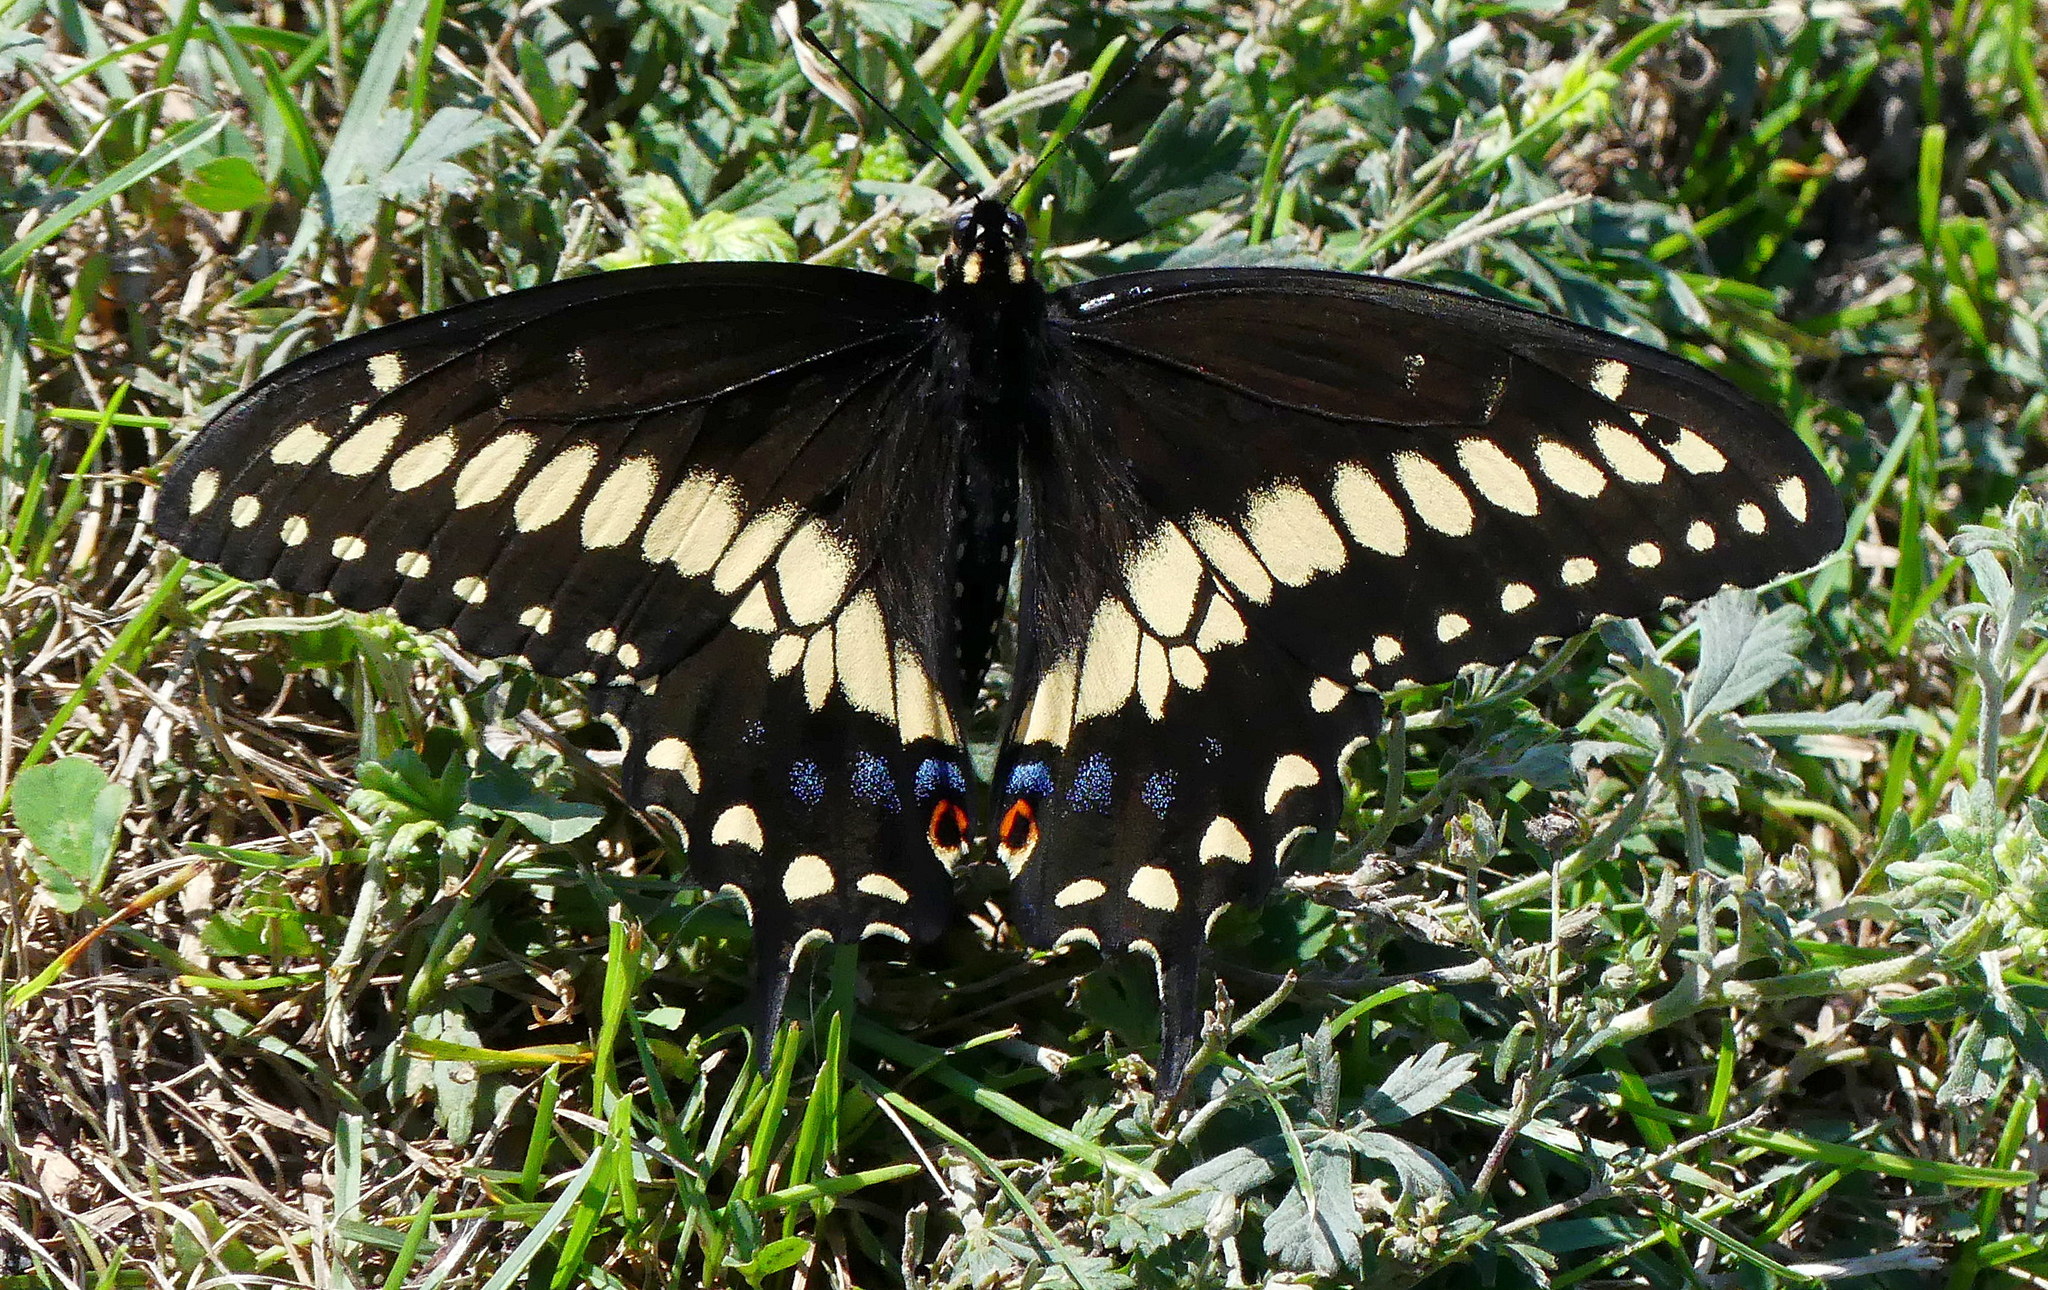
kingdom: Animalia
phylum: Arthropoda
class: Insecta
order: Lepidoptera
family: Papilionidae
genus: Papilio
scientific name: Papilio polyxenes
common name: Black swallowtail
